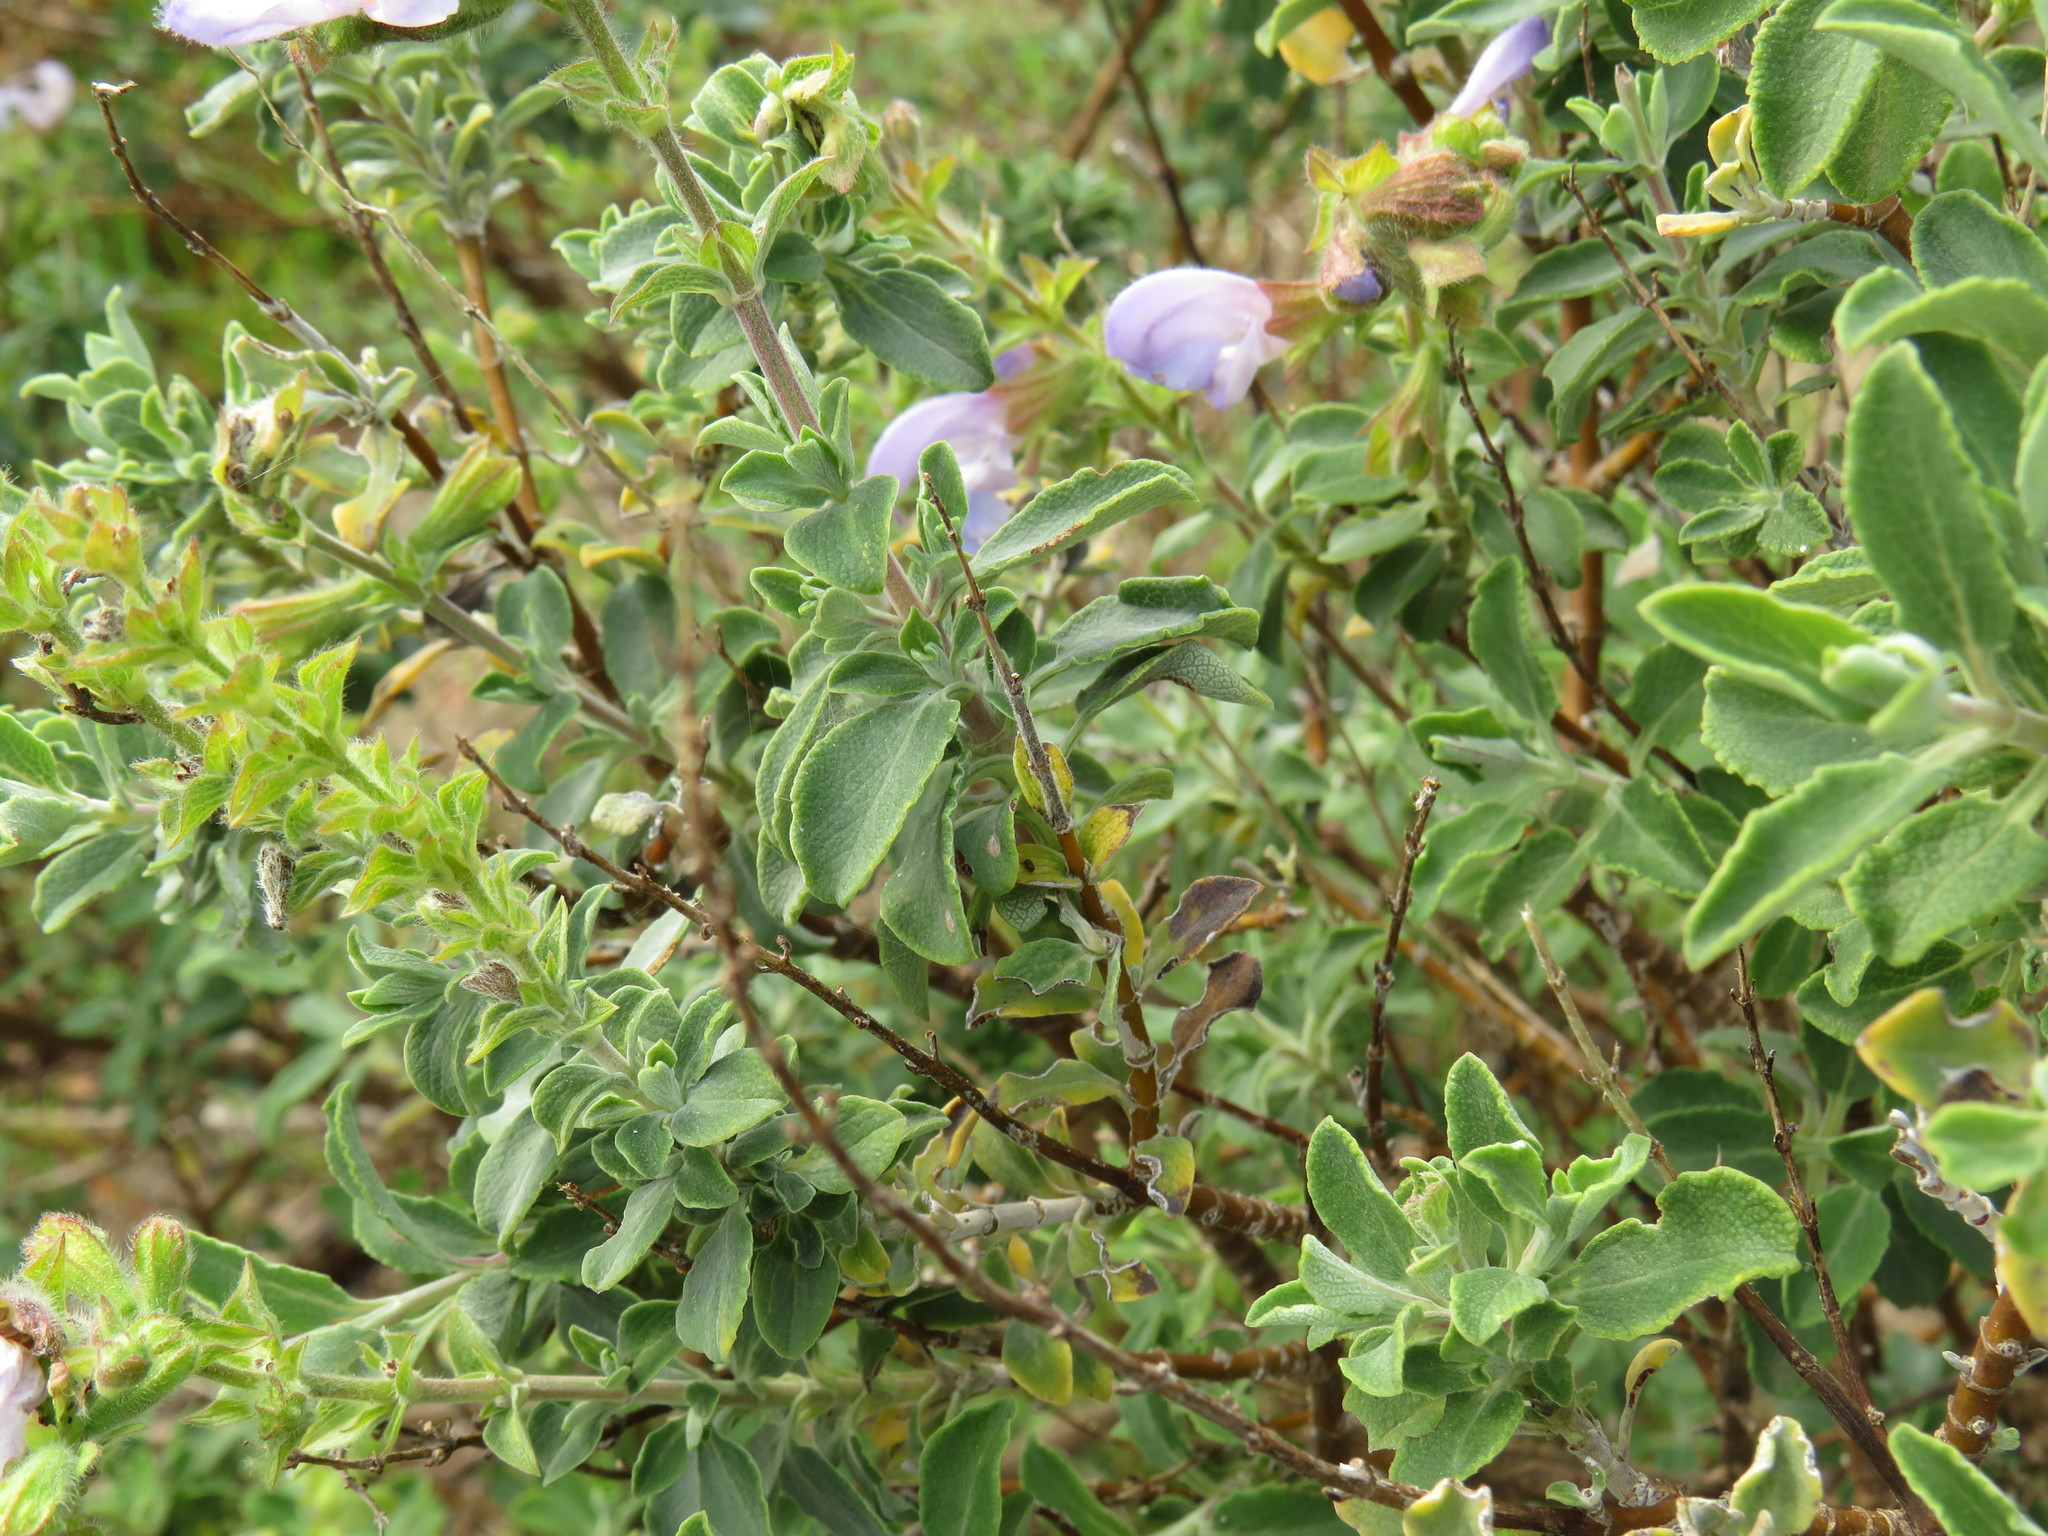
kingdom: Plantae
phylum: Tracheophyta
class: Magnoliopsida
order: Lamiales
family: Lamiaceae
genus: Salvia
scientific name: Salvia africana
